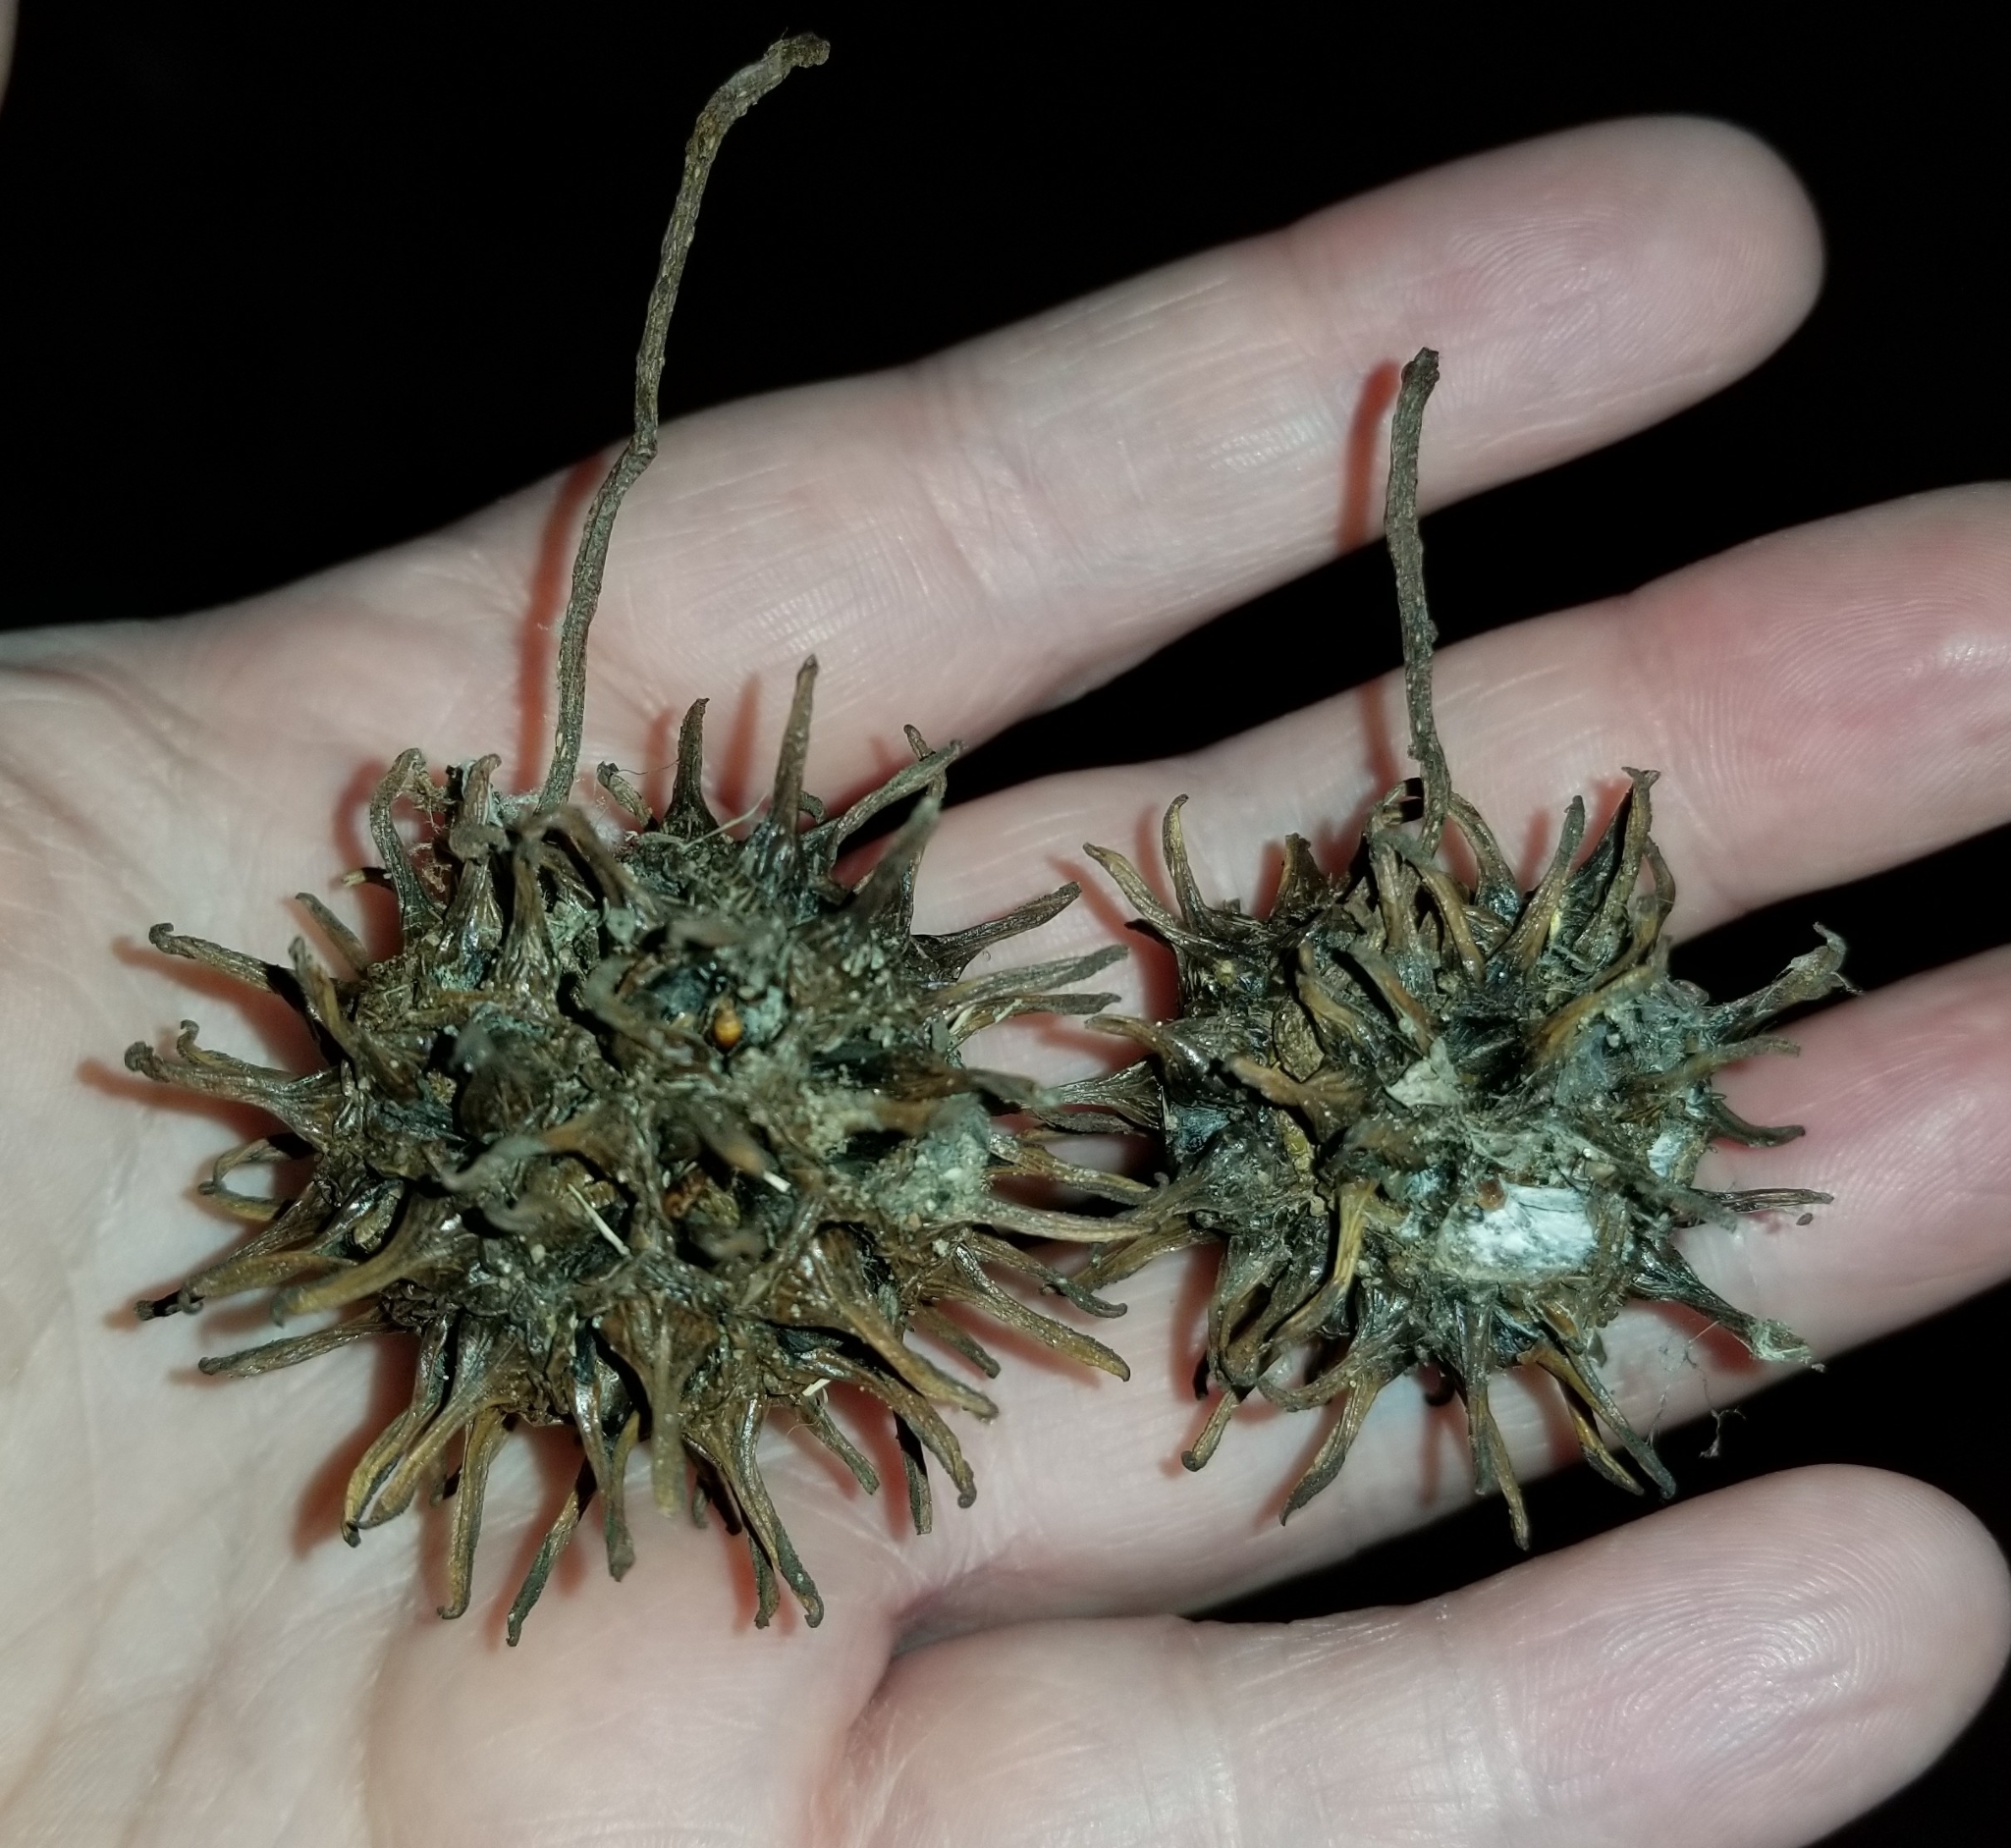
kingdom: Plantae
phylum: Tracheophyta
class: Magnoliopsida
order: Saxifragales
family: Altingiaceae
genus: Liquidambar
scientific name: Liquidambar styraciflua
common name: Sweet gum
